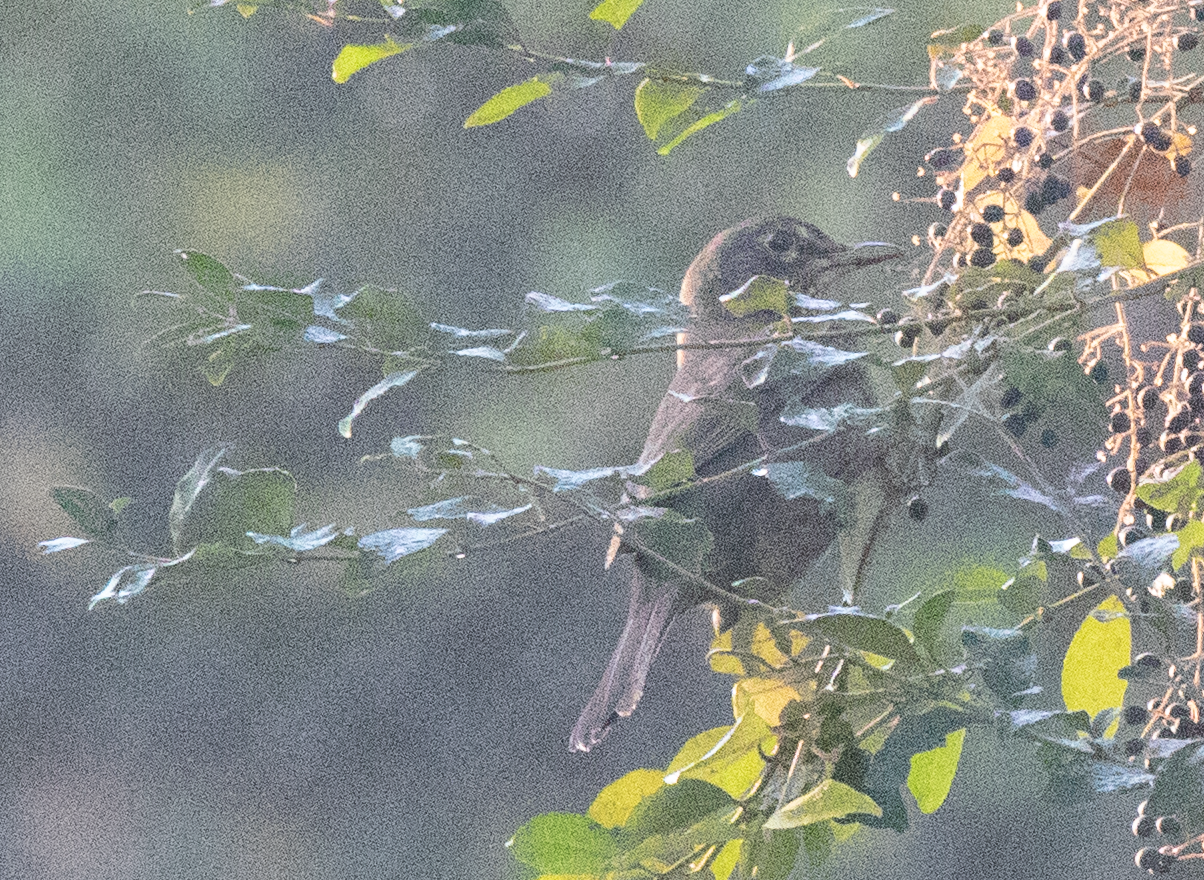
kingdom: Animalia
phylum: Chordata
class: Aves
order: Passeriformes
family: Turdidae
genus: Turdus
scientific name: Turdus merula
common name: Common blackbird
